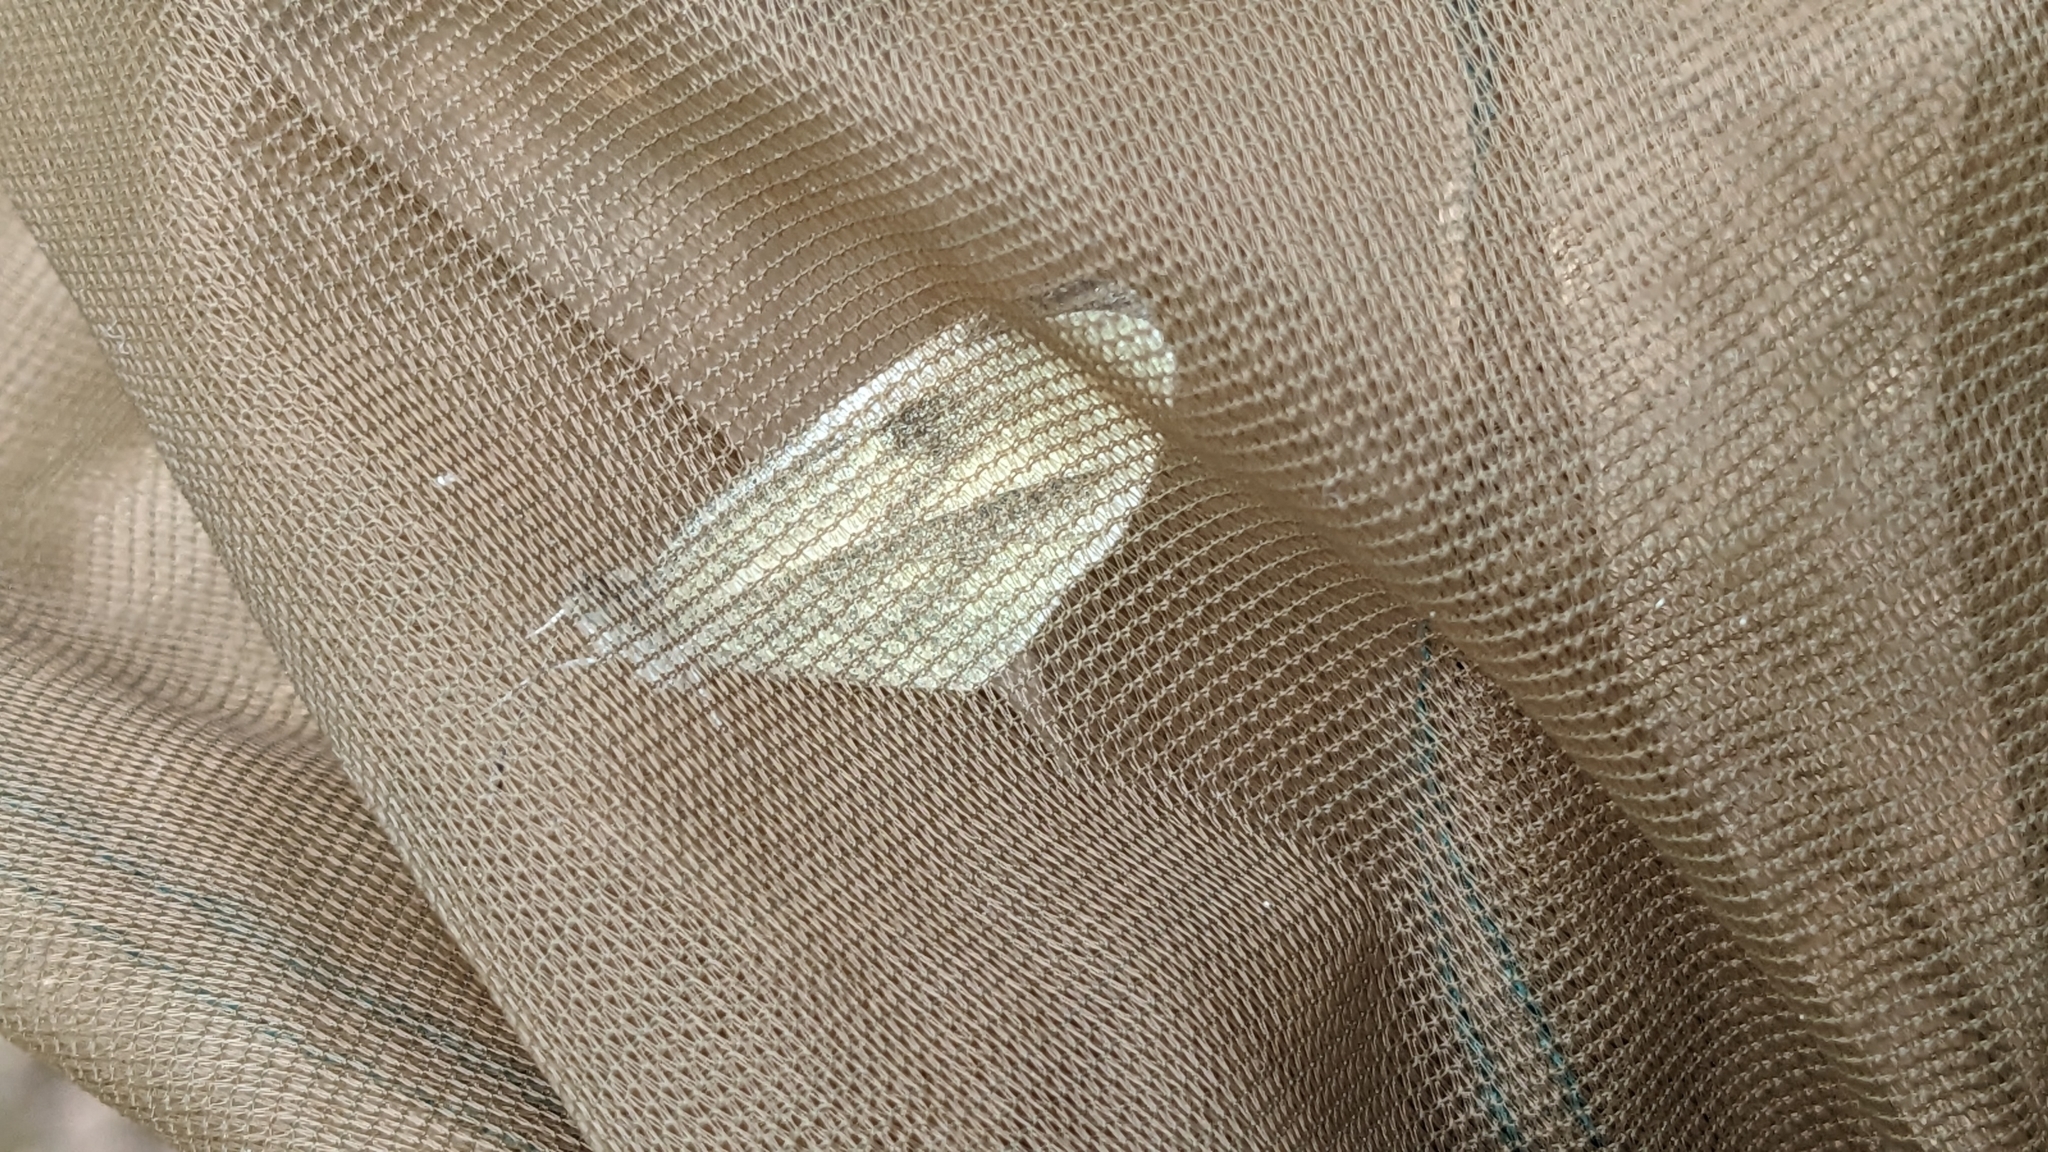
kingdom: Animalia
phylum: Arthropoda
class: Insecta
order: Lepidoptera
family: Pieridae
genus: Leptidea
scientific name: Leptidea sinapis
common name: Wood white
